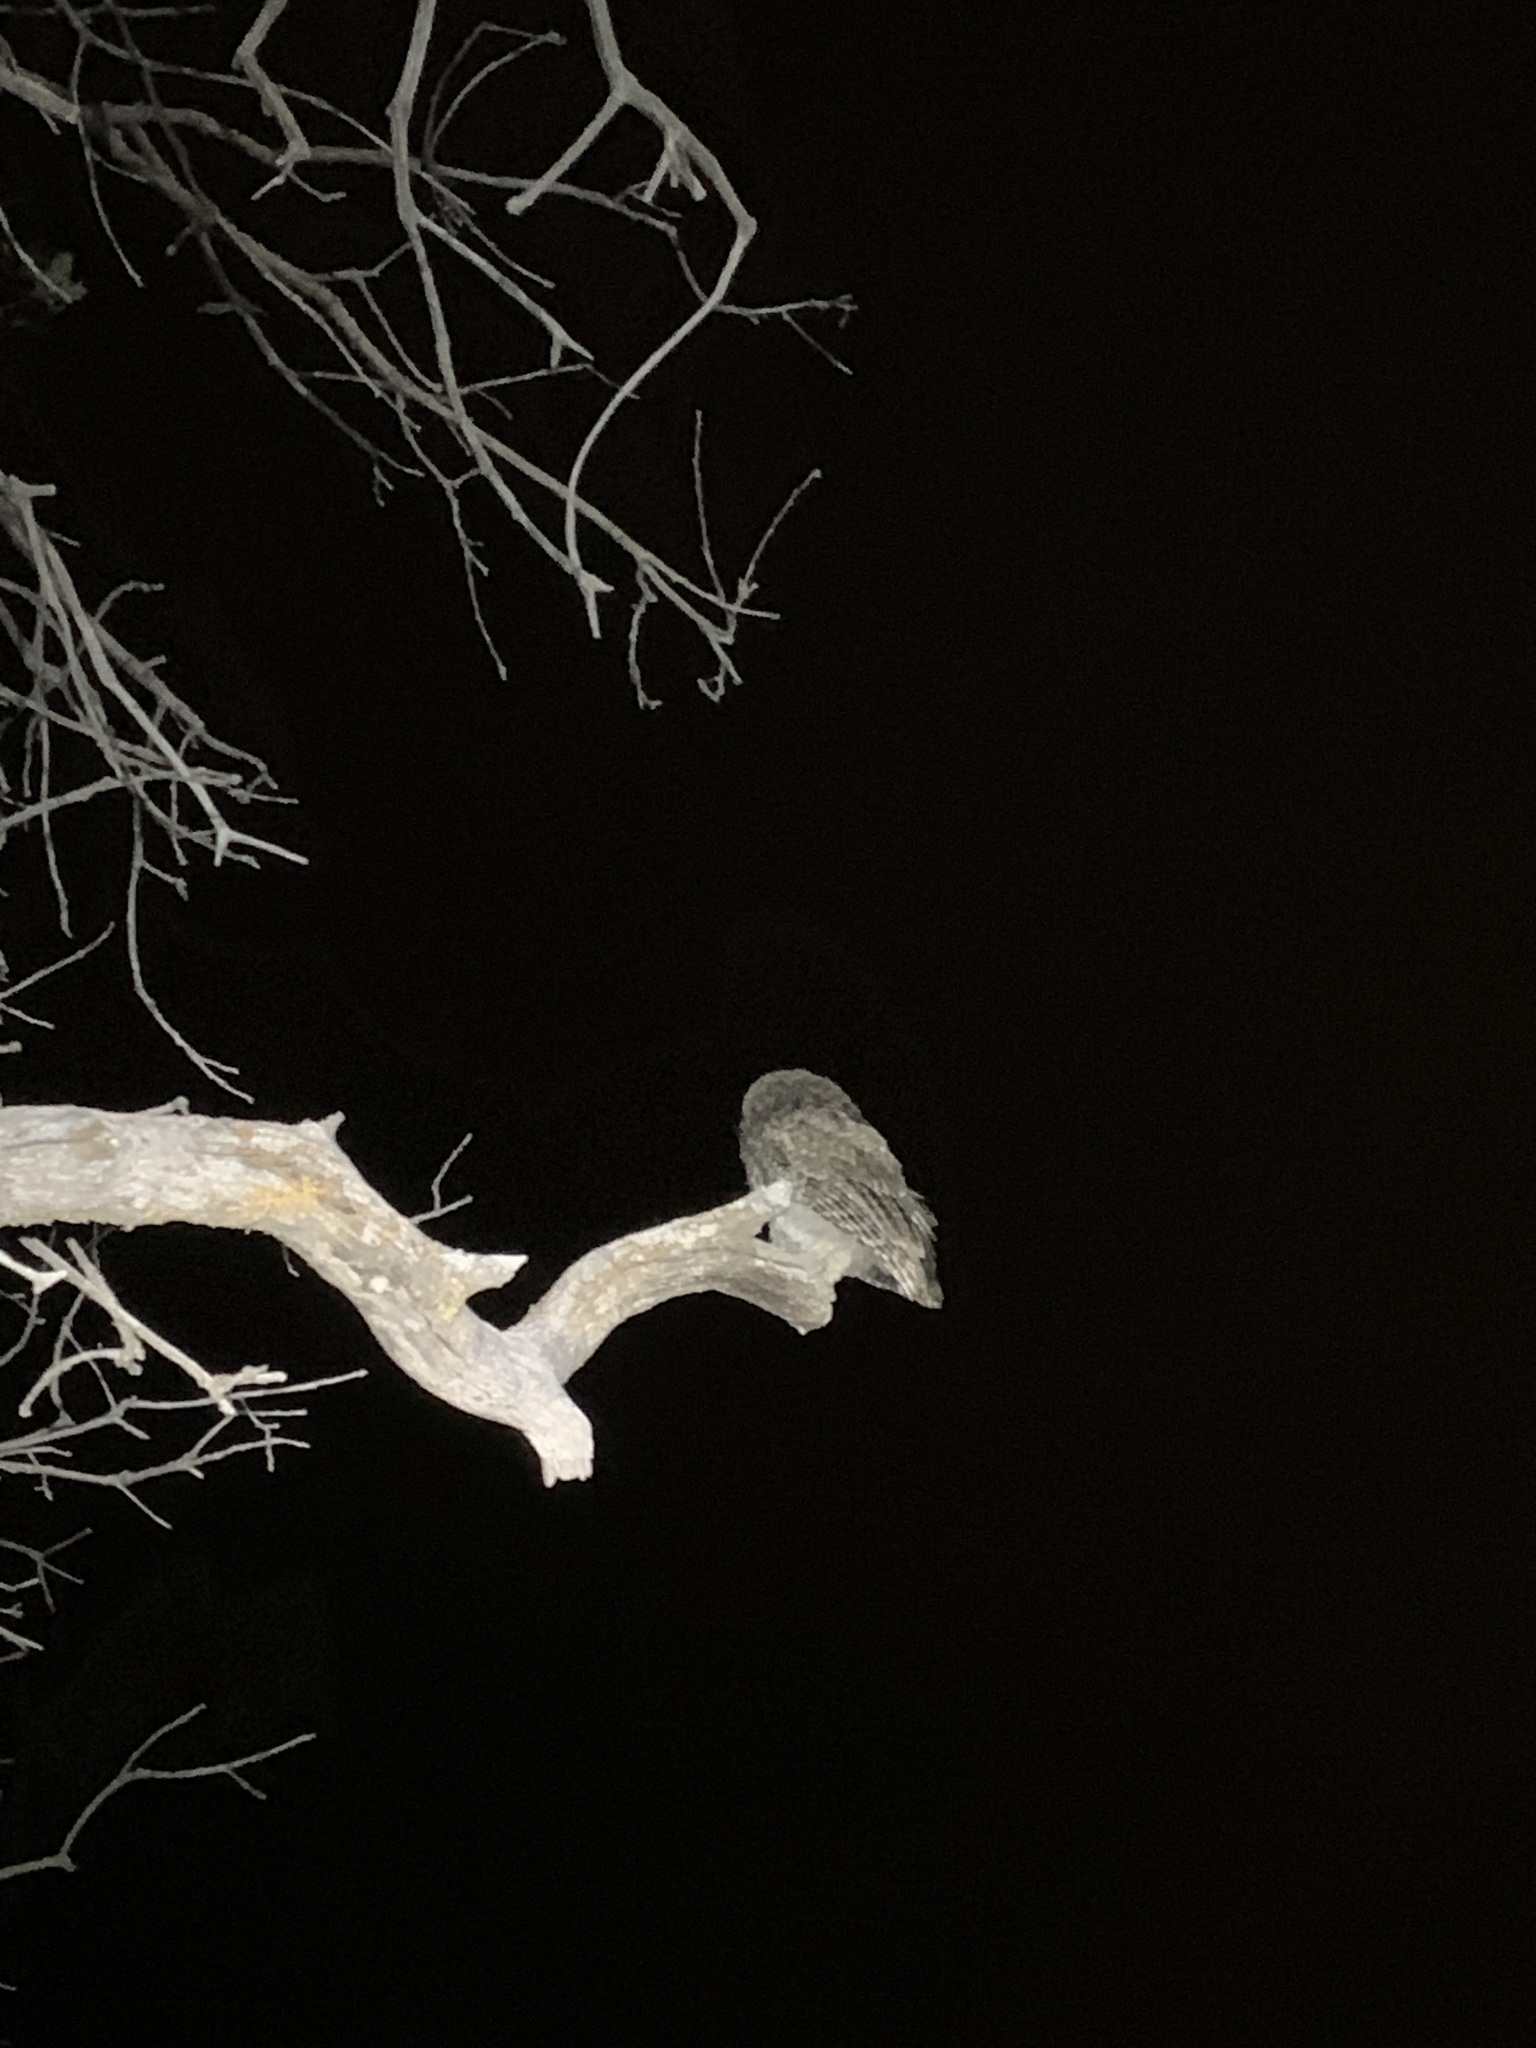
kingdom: Animalia
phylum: Chordata
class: Aves
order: Strigiformes
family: Strigidae
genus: Megascops
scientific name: Megascops kennicottii
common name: Western screech-owl
